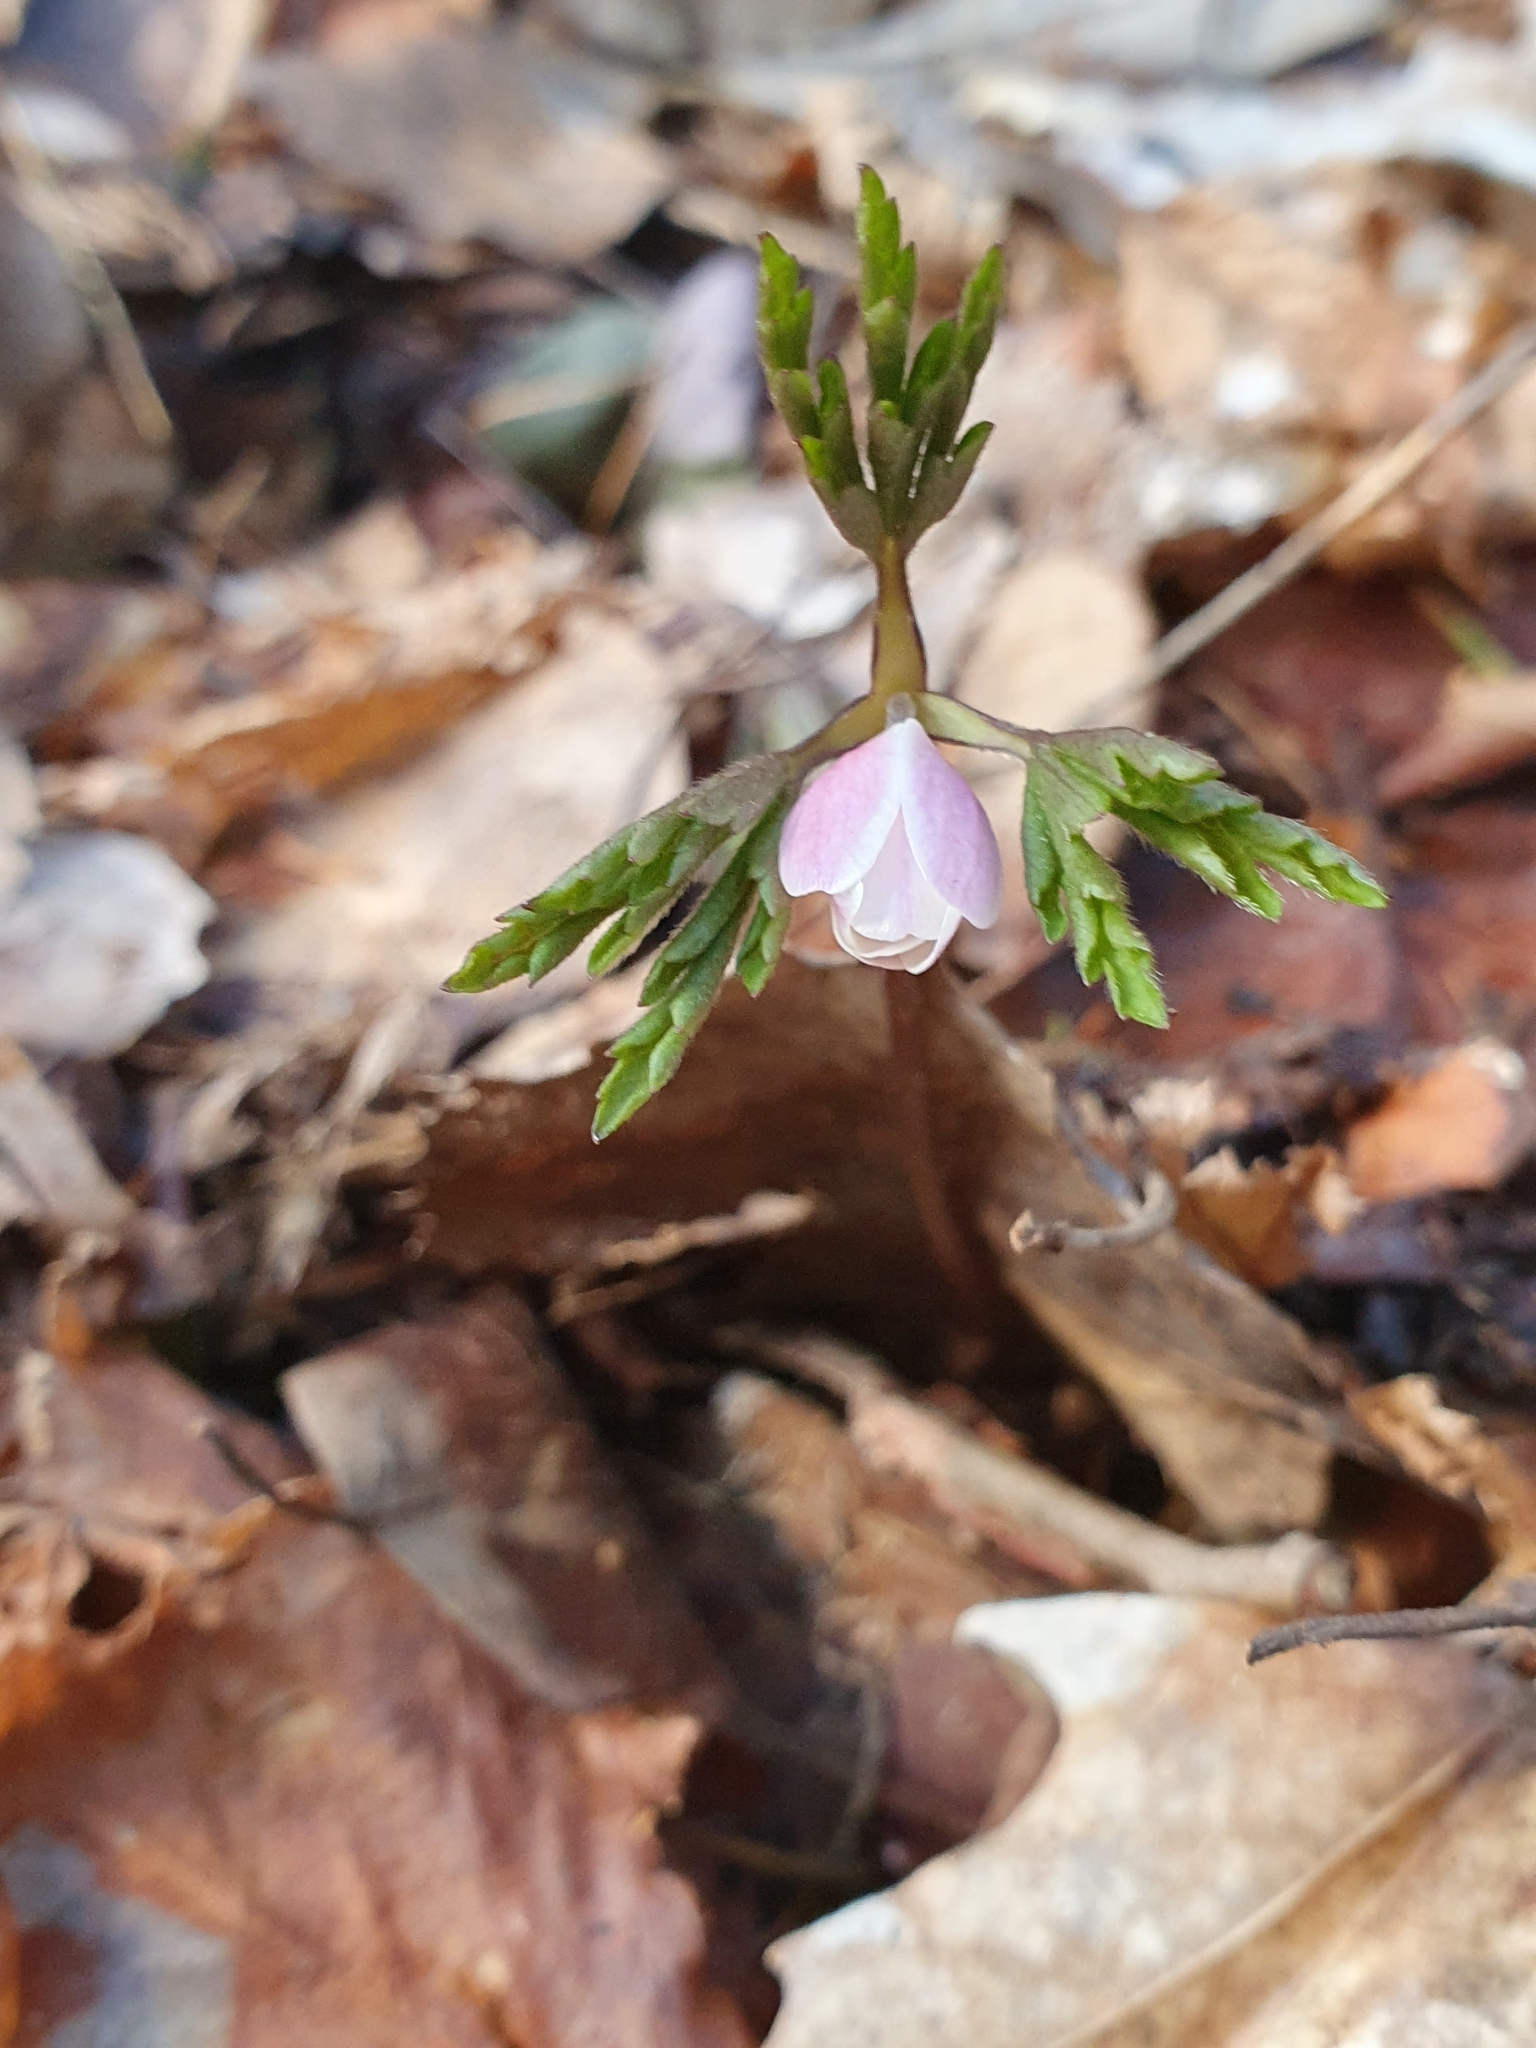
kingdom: Plantae
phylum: Tracheophyta
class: Magnoliopsida
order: Ranunculales
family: Ranunculaceae
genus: Anemone
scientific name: Anemone nemorosa
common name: Wood anemone
